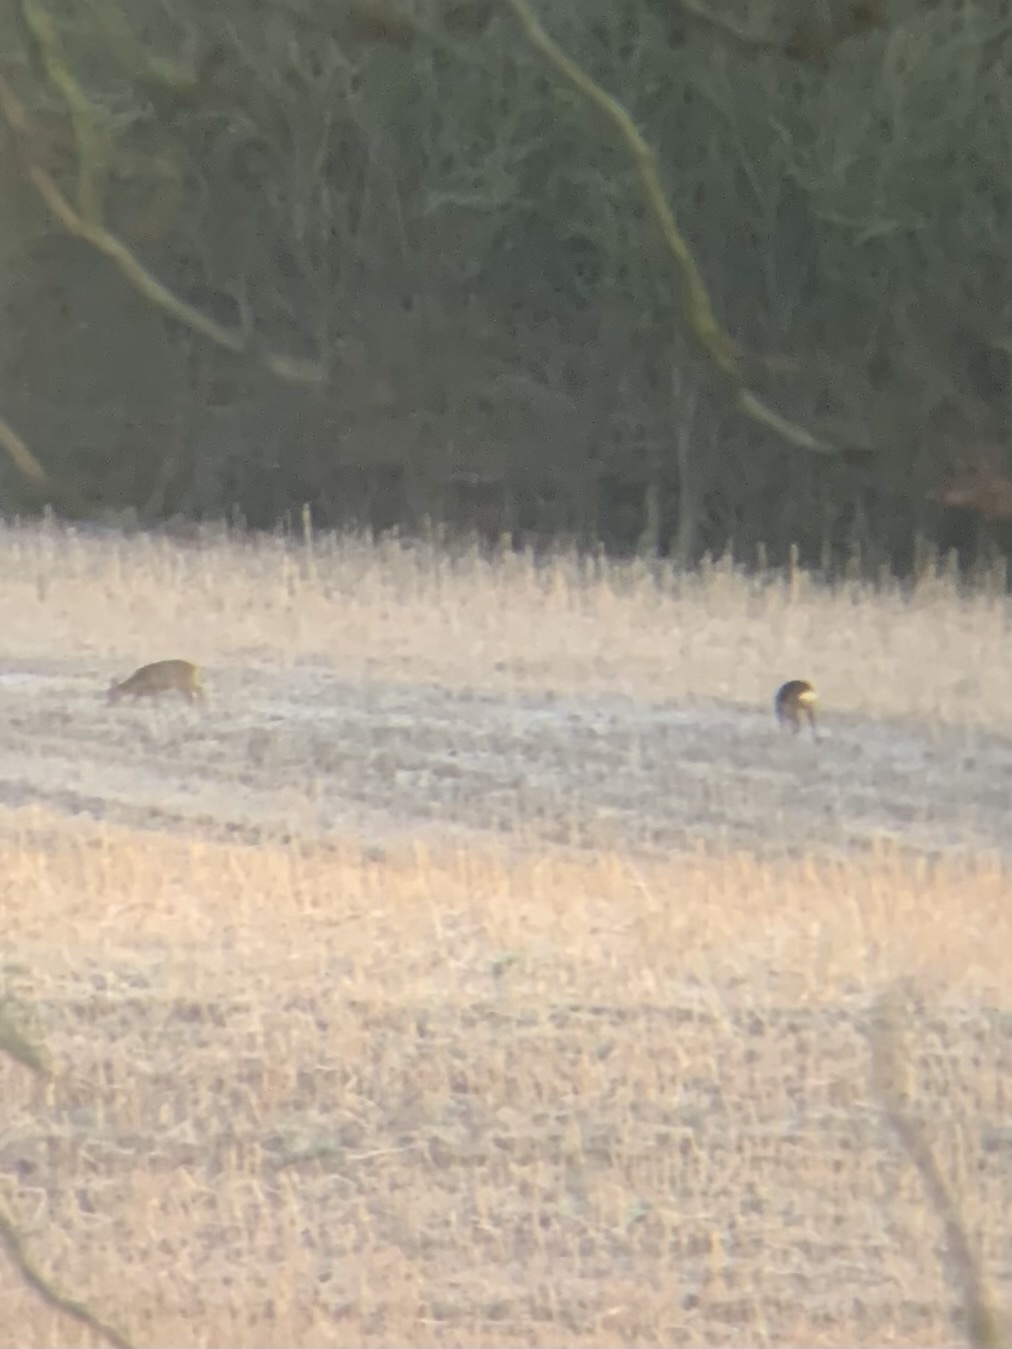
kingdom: Animalia
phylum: Chordata
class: Mammalia
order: Artiodactyla
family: Cervidae
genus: Capreolus
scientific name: Capreolus capreolus
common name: Western roe deer
